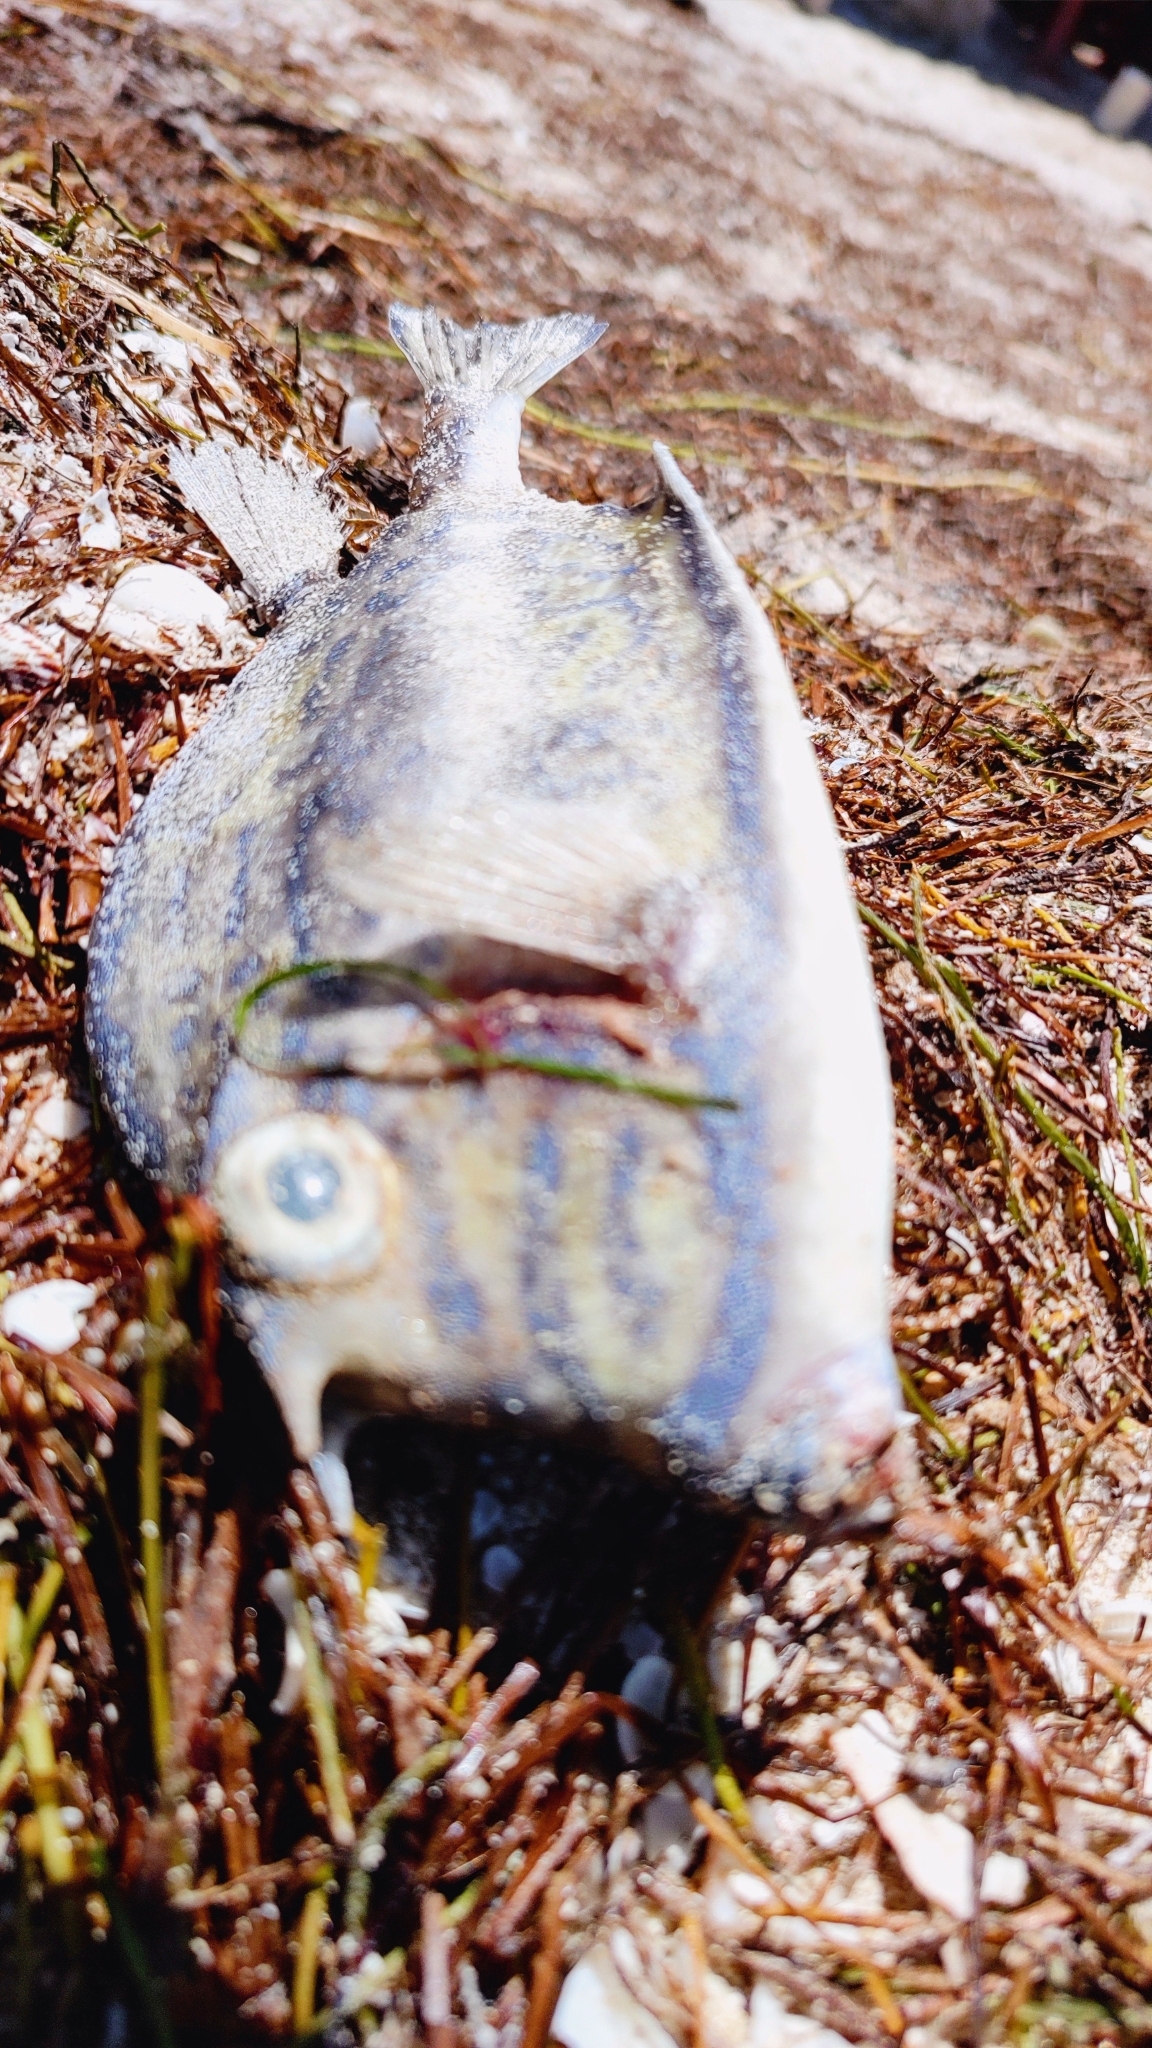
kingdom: Animalia
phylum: Chordata
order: Tetraodontiformes
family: Ostraciidae
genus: Acanthostracion
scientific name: Acanthostracion quadricornis
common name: Scrawled cowfish
